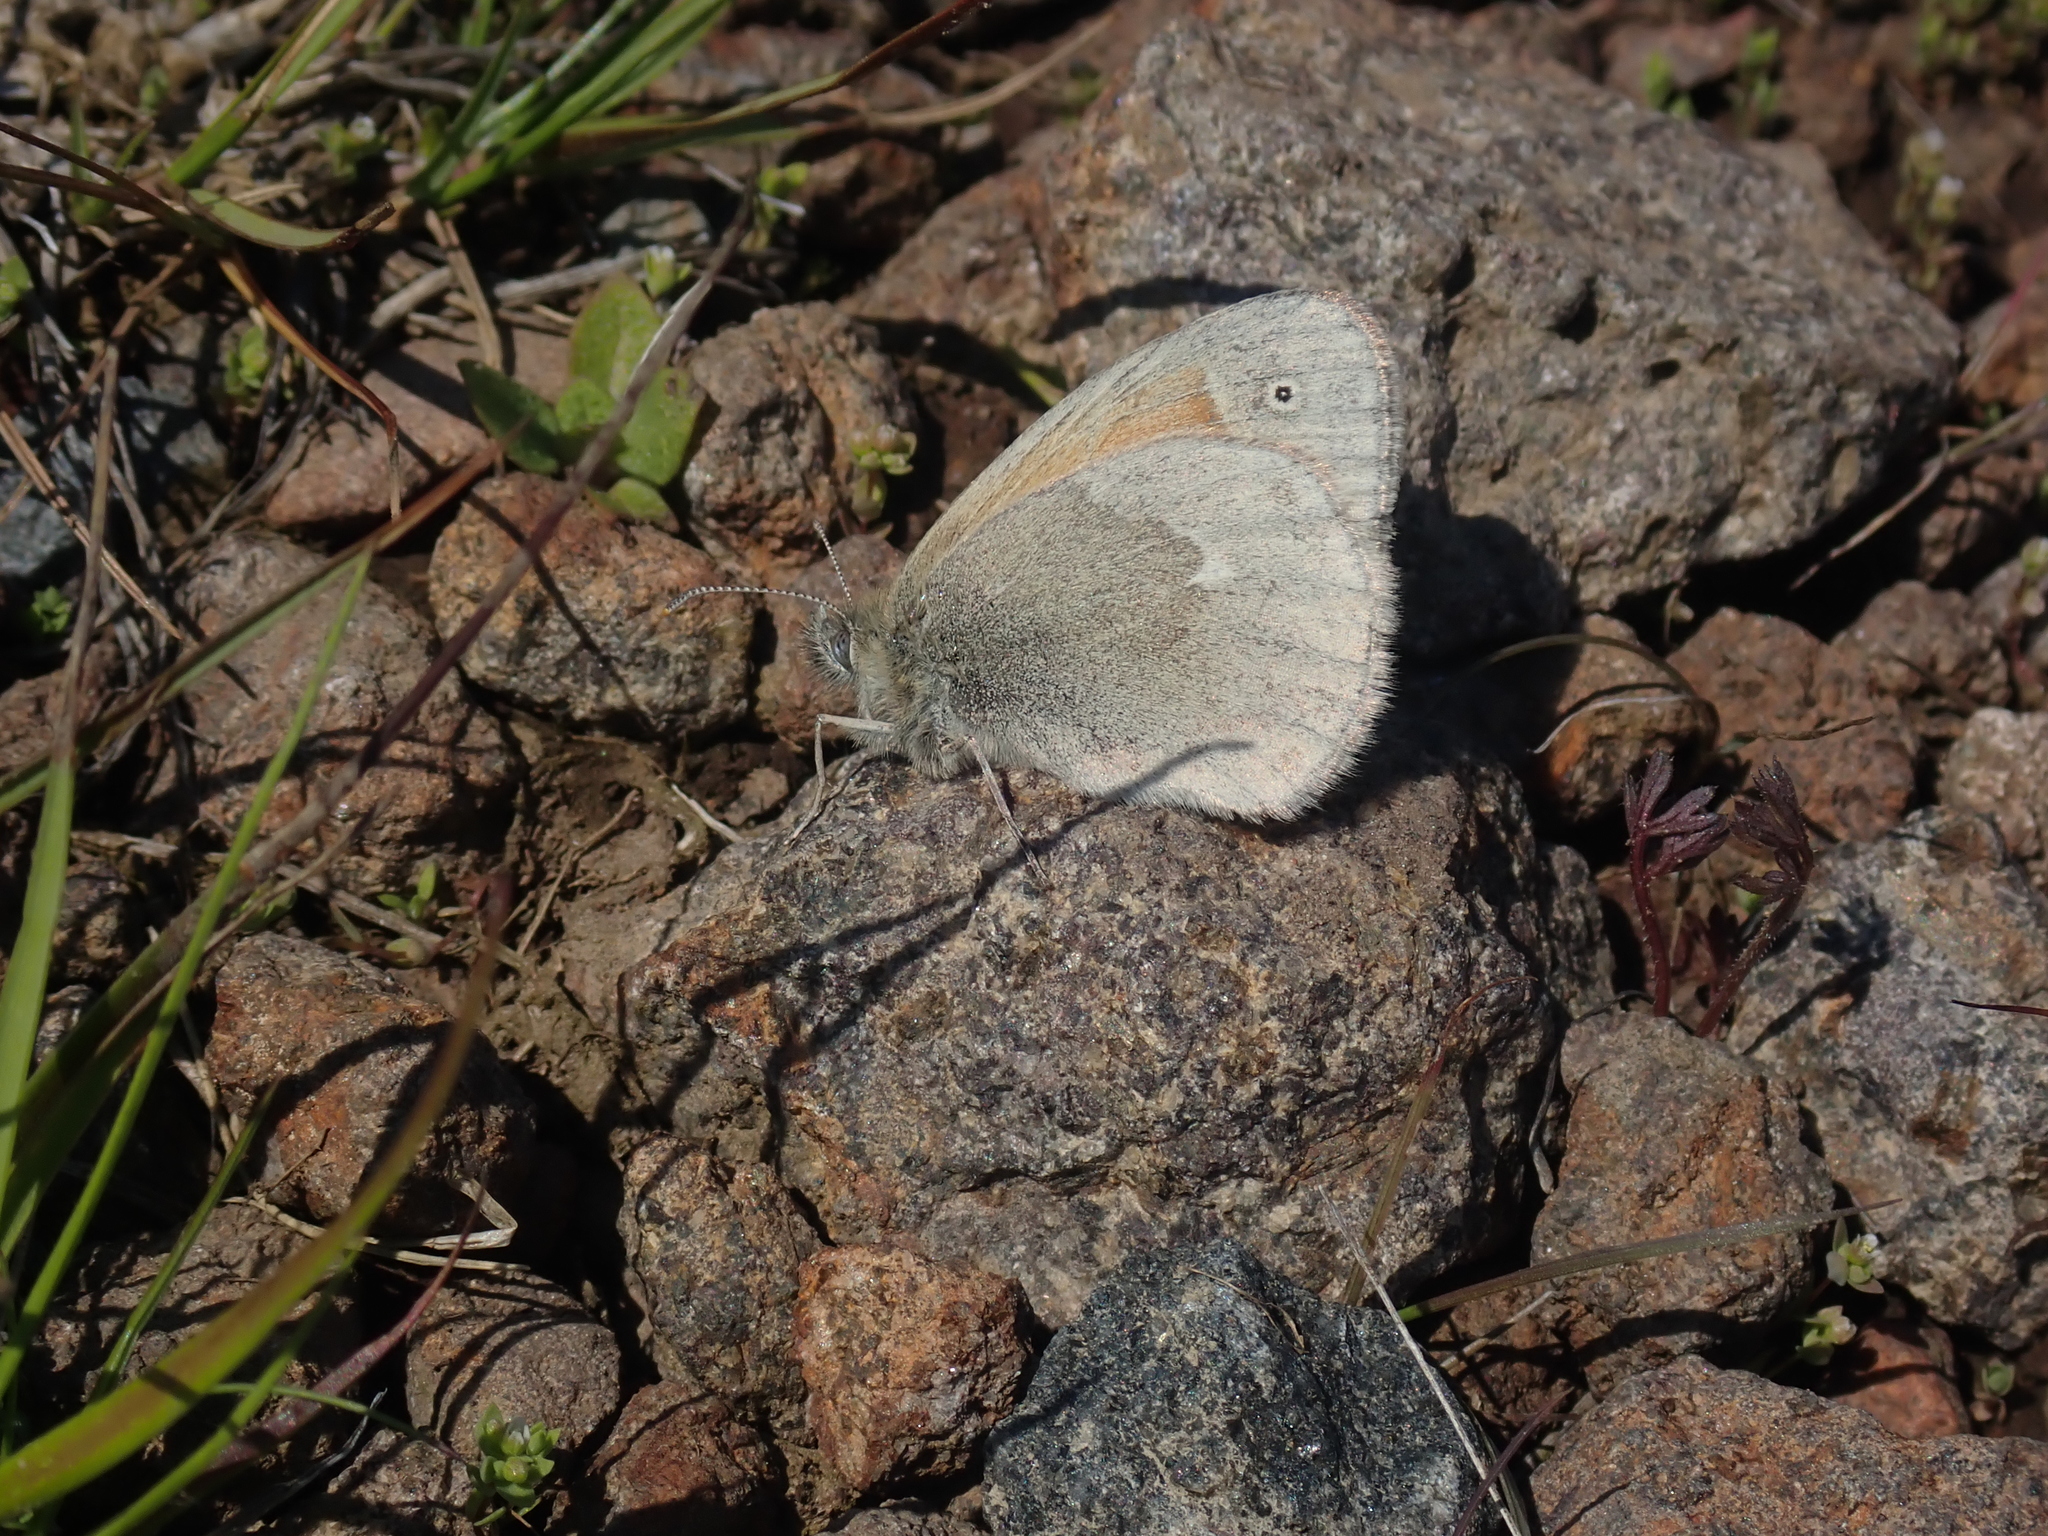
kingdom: Animalia
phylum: Arthropoda
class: Insecta
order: Lepidoptera
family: Nymphalidae
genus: Coenonympha
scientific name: Coenonympha california
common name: Common ringlet
